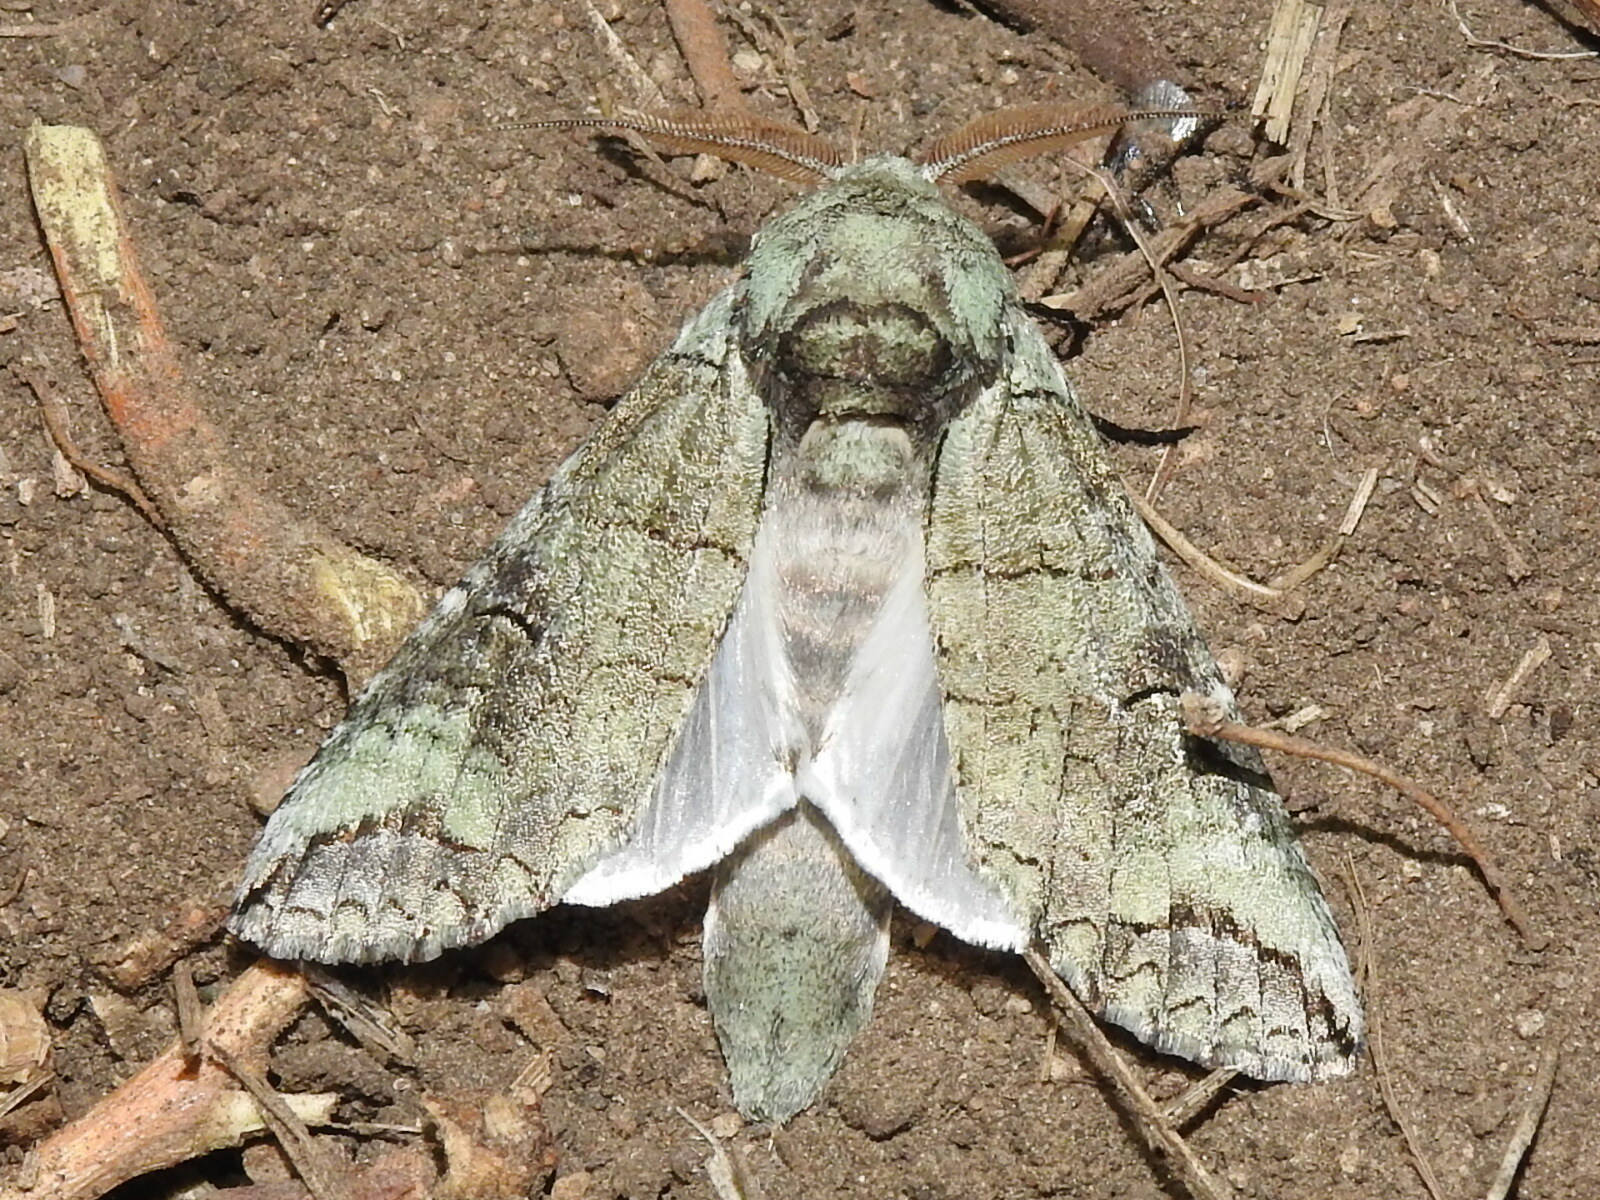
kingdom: Animalia
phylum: Arthropoda
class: Insecta
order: Lepidoptera
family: Notodontidae
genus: Heterocampa
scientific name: Heterocampa astartoides
